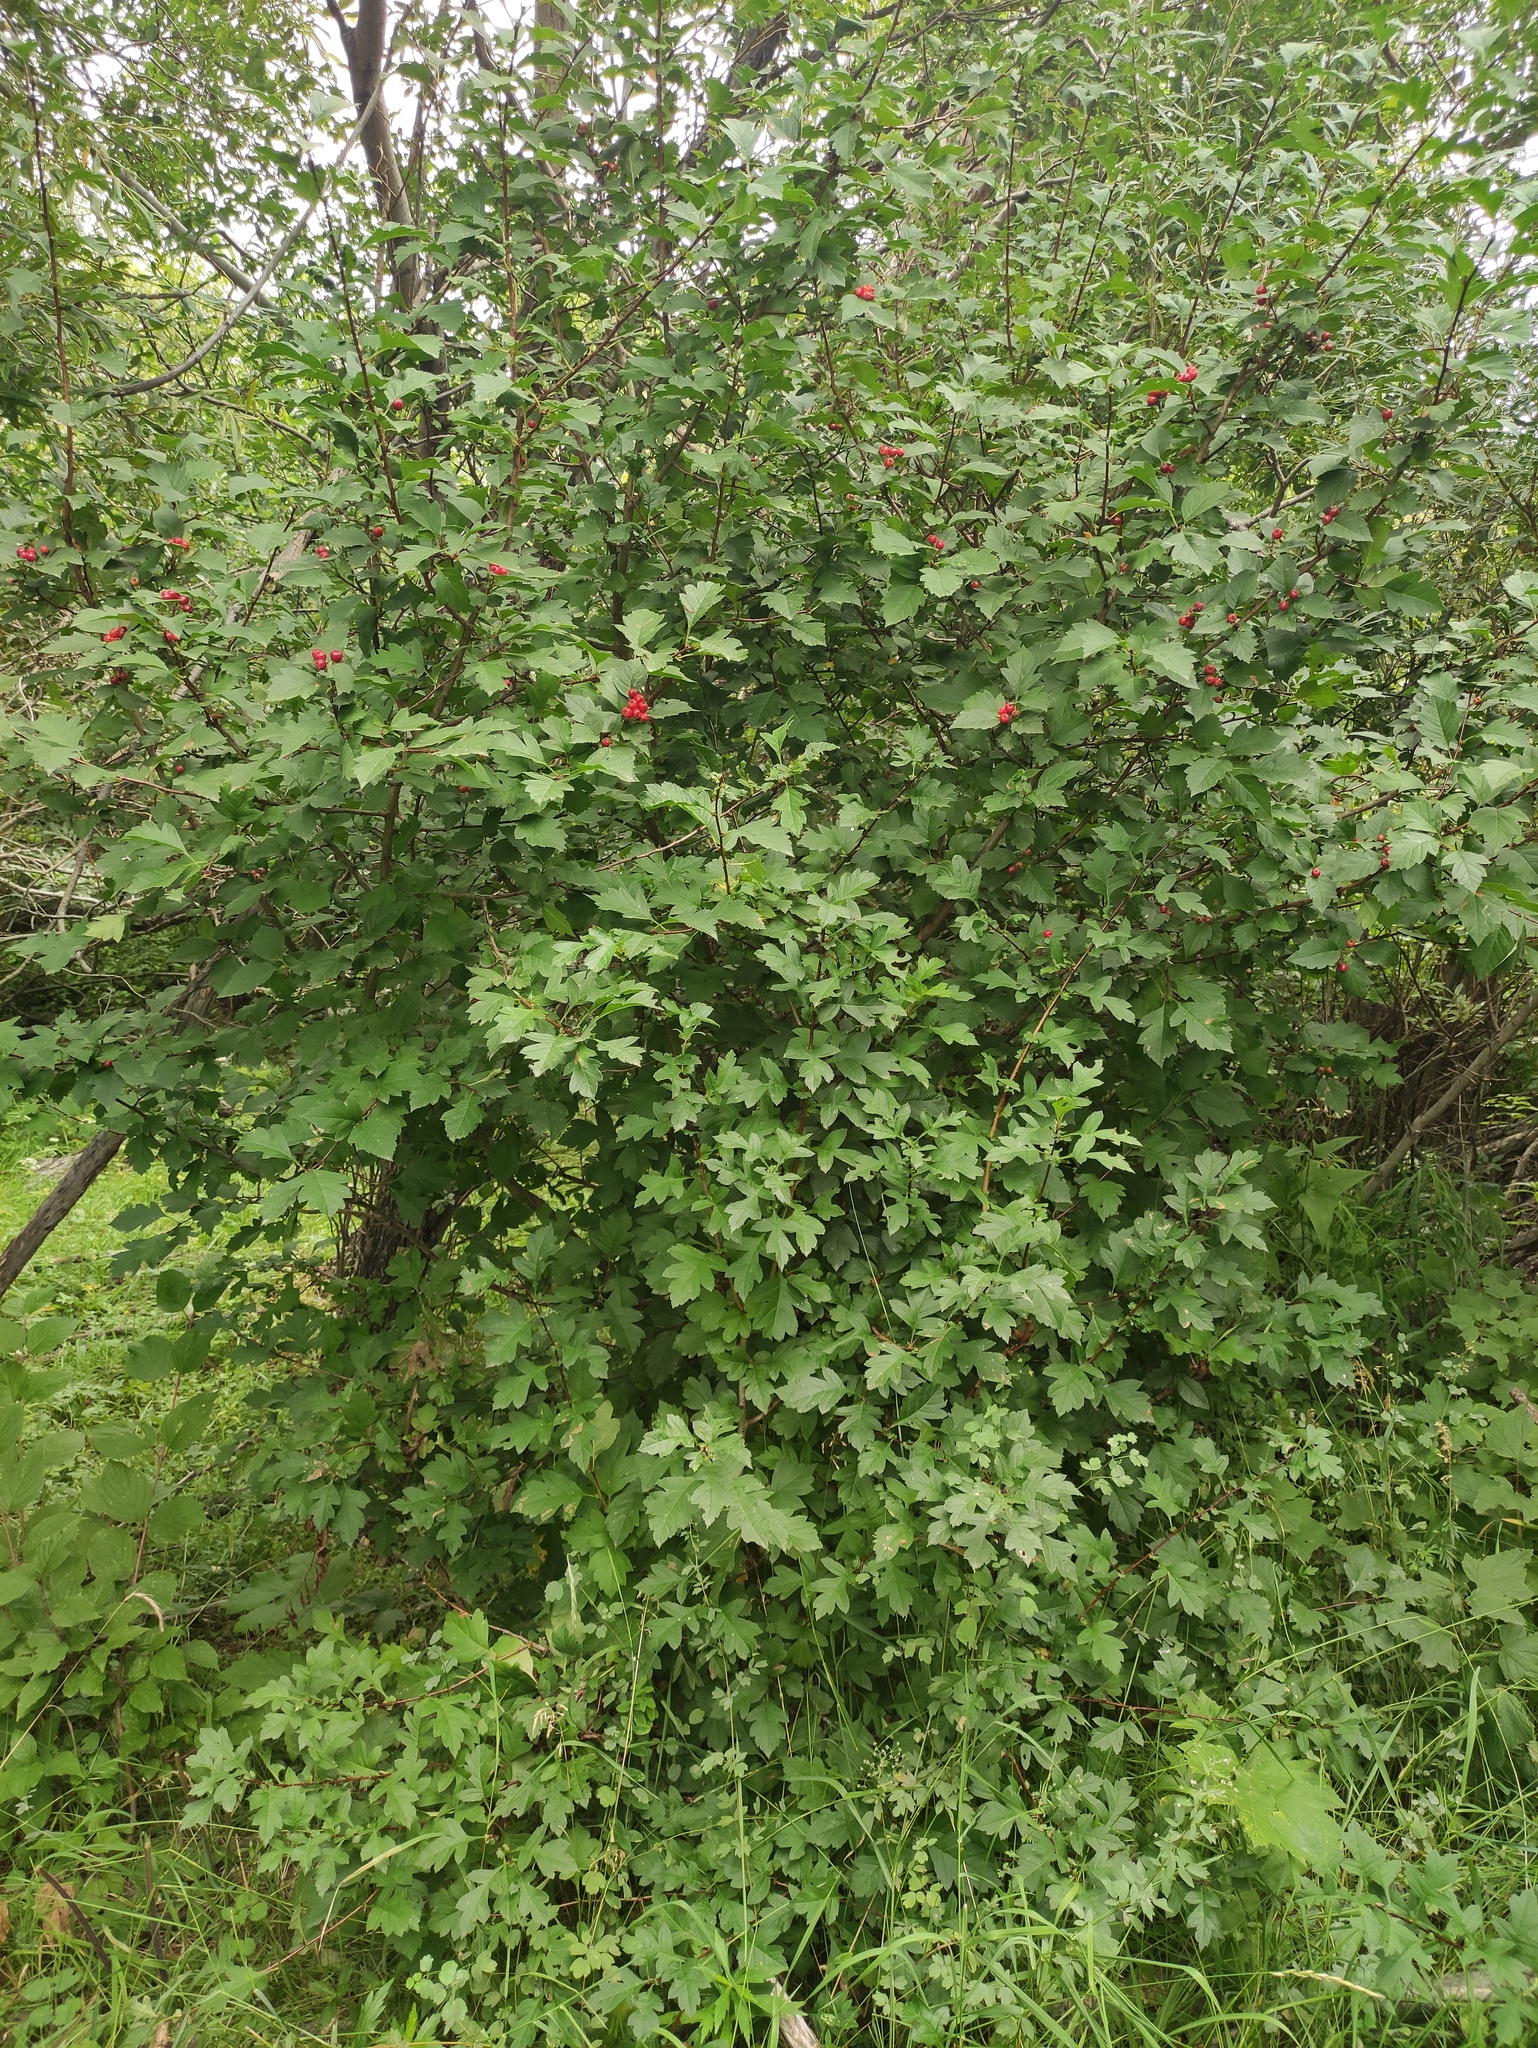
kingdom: Plantae
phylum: Tracheophyta
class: Magnoliopsida
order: Rosales
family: Rosaceae
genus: Crataegus
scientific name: Crataegus sanguinea
